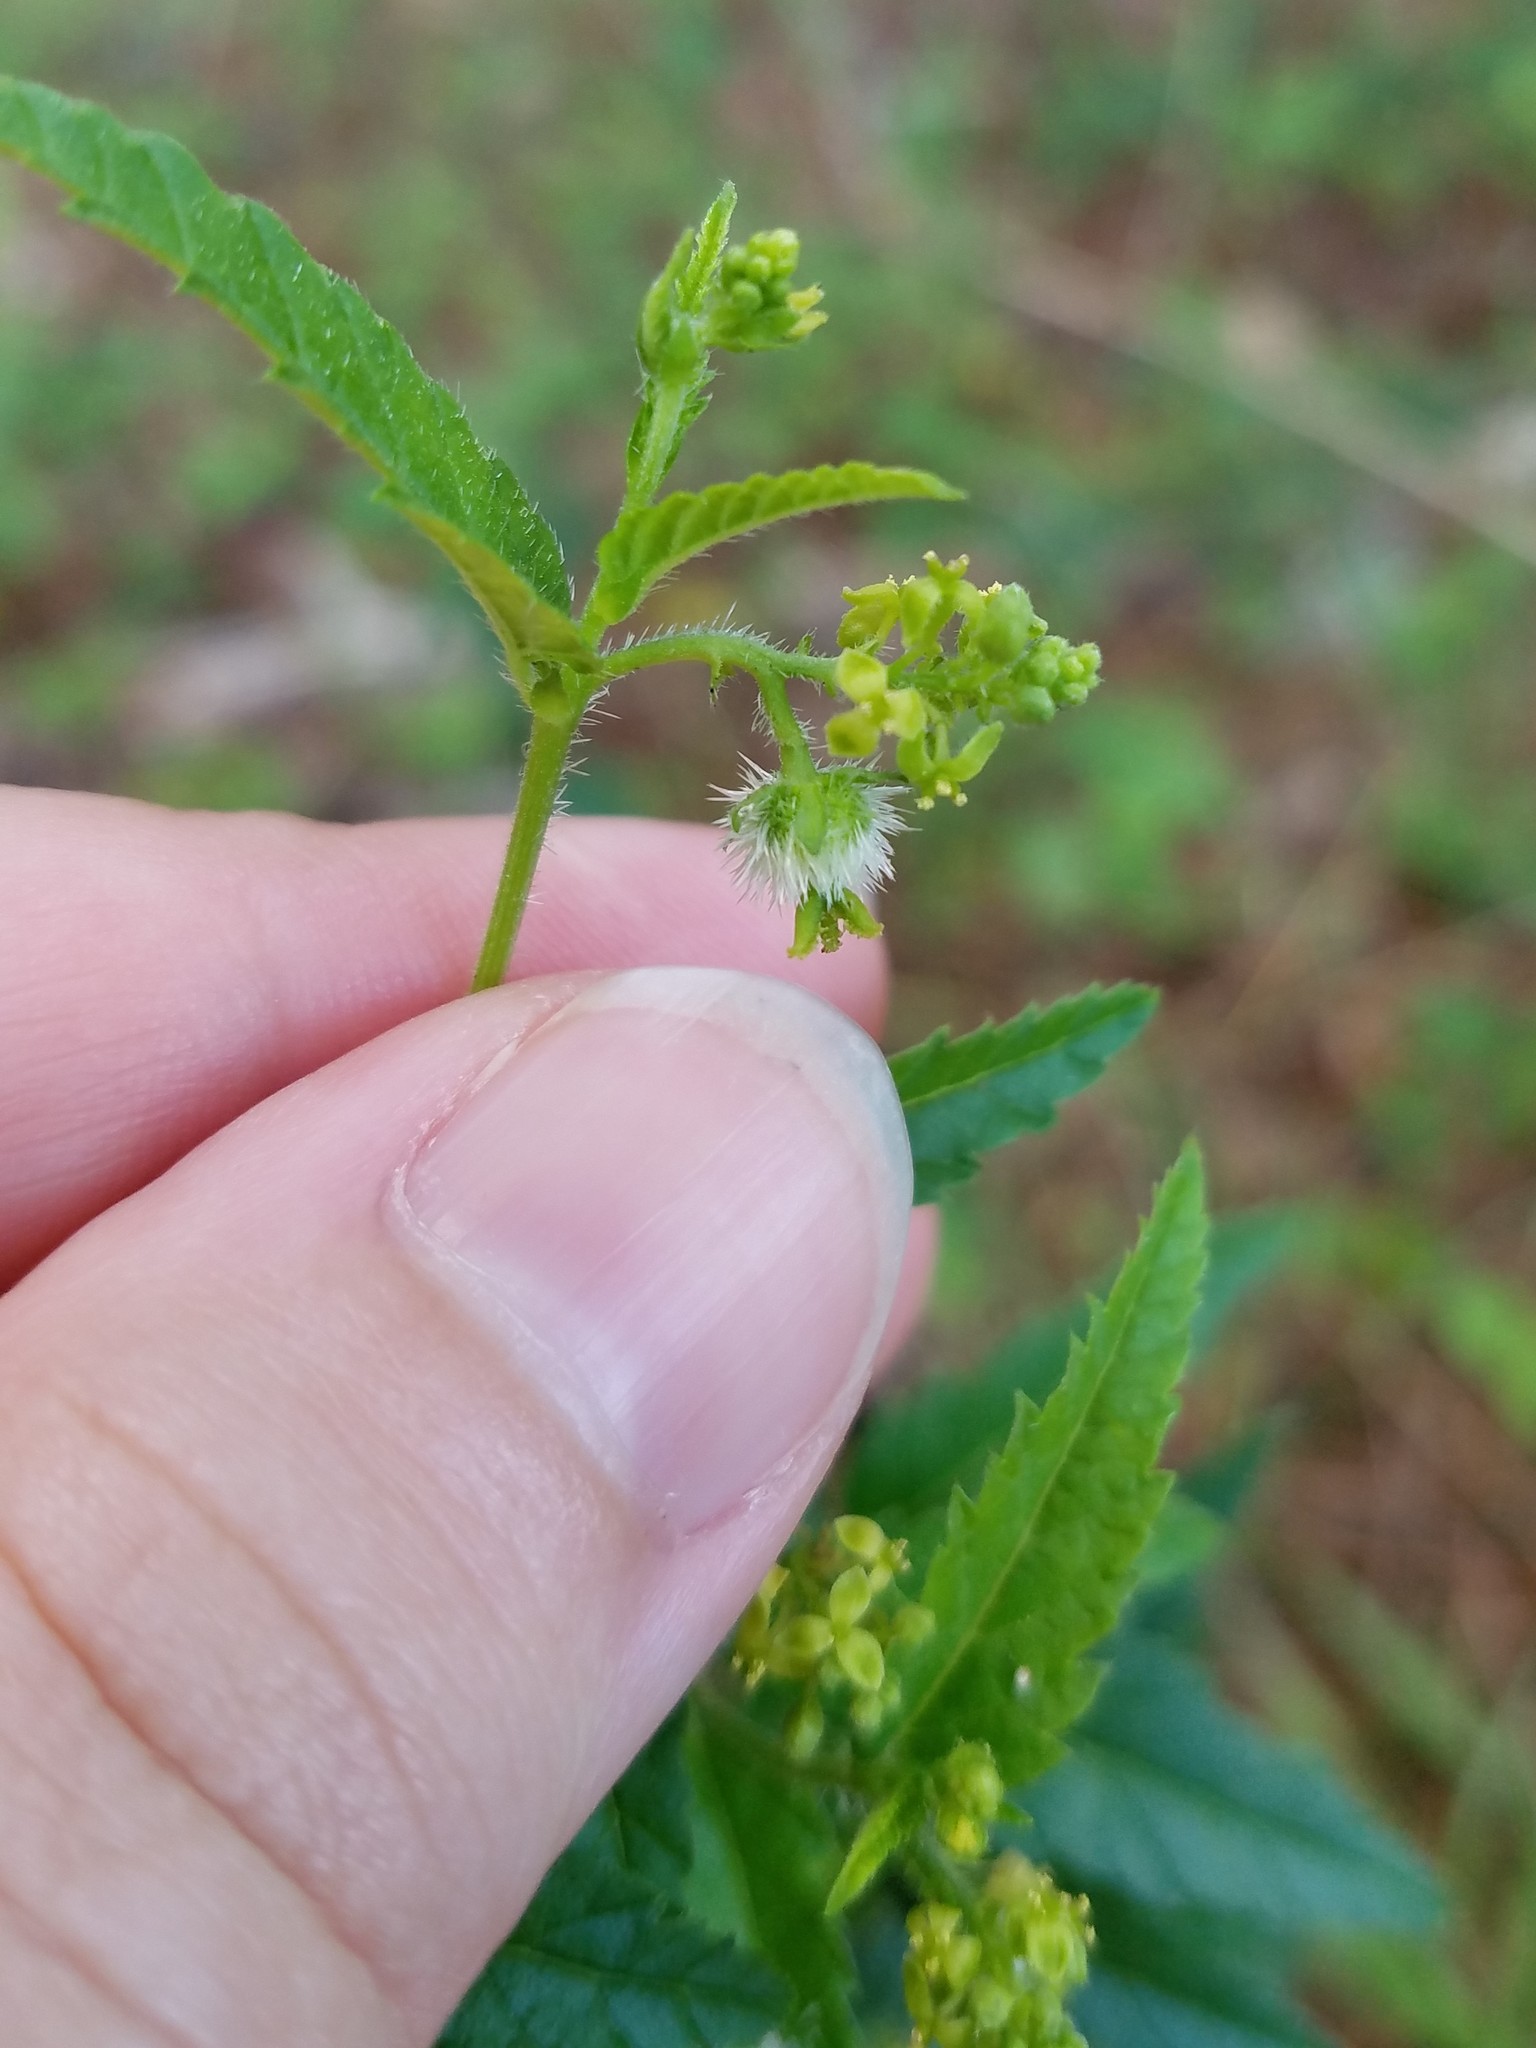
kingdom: Plantae
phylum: Tracheophyta
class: Magnoliopsida
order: Malpighiales
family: Euphorbiaceae
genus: Tragia
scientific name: Tragia urticifolia
